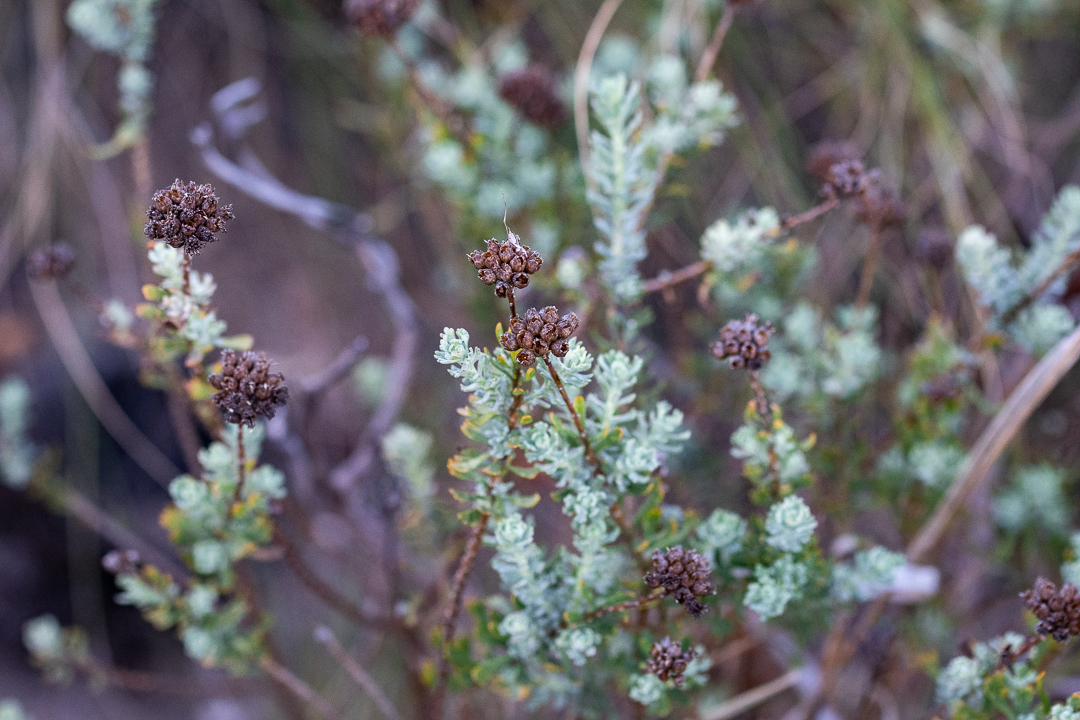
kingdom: Plantae
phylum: Tracheophyta
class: Magnoliopsida
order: Asterales
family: Asteraceae
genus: Athanasia
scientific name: Athanasia trifurcata
